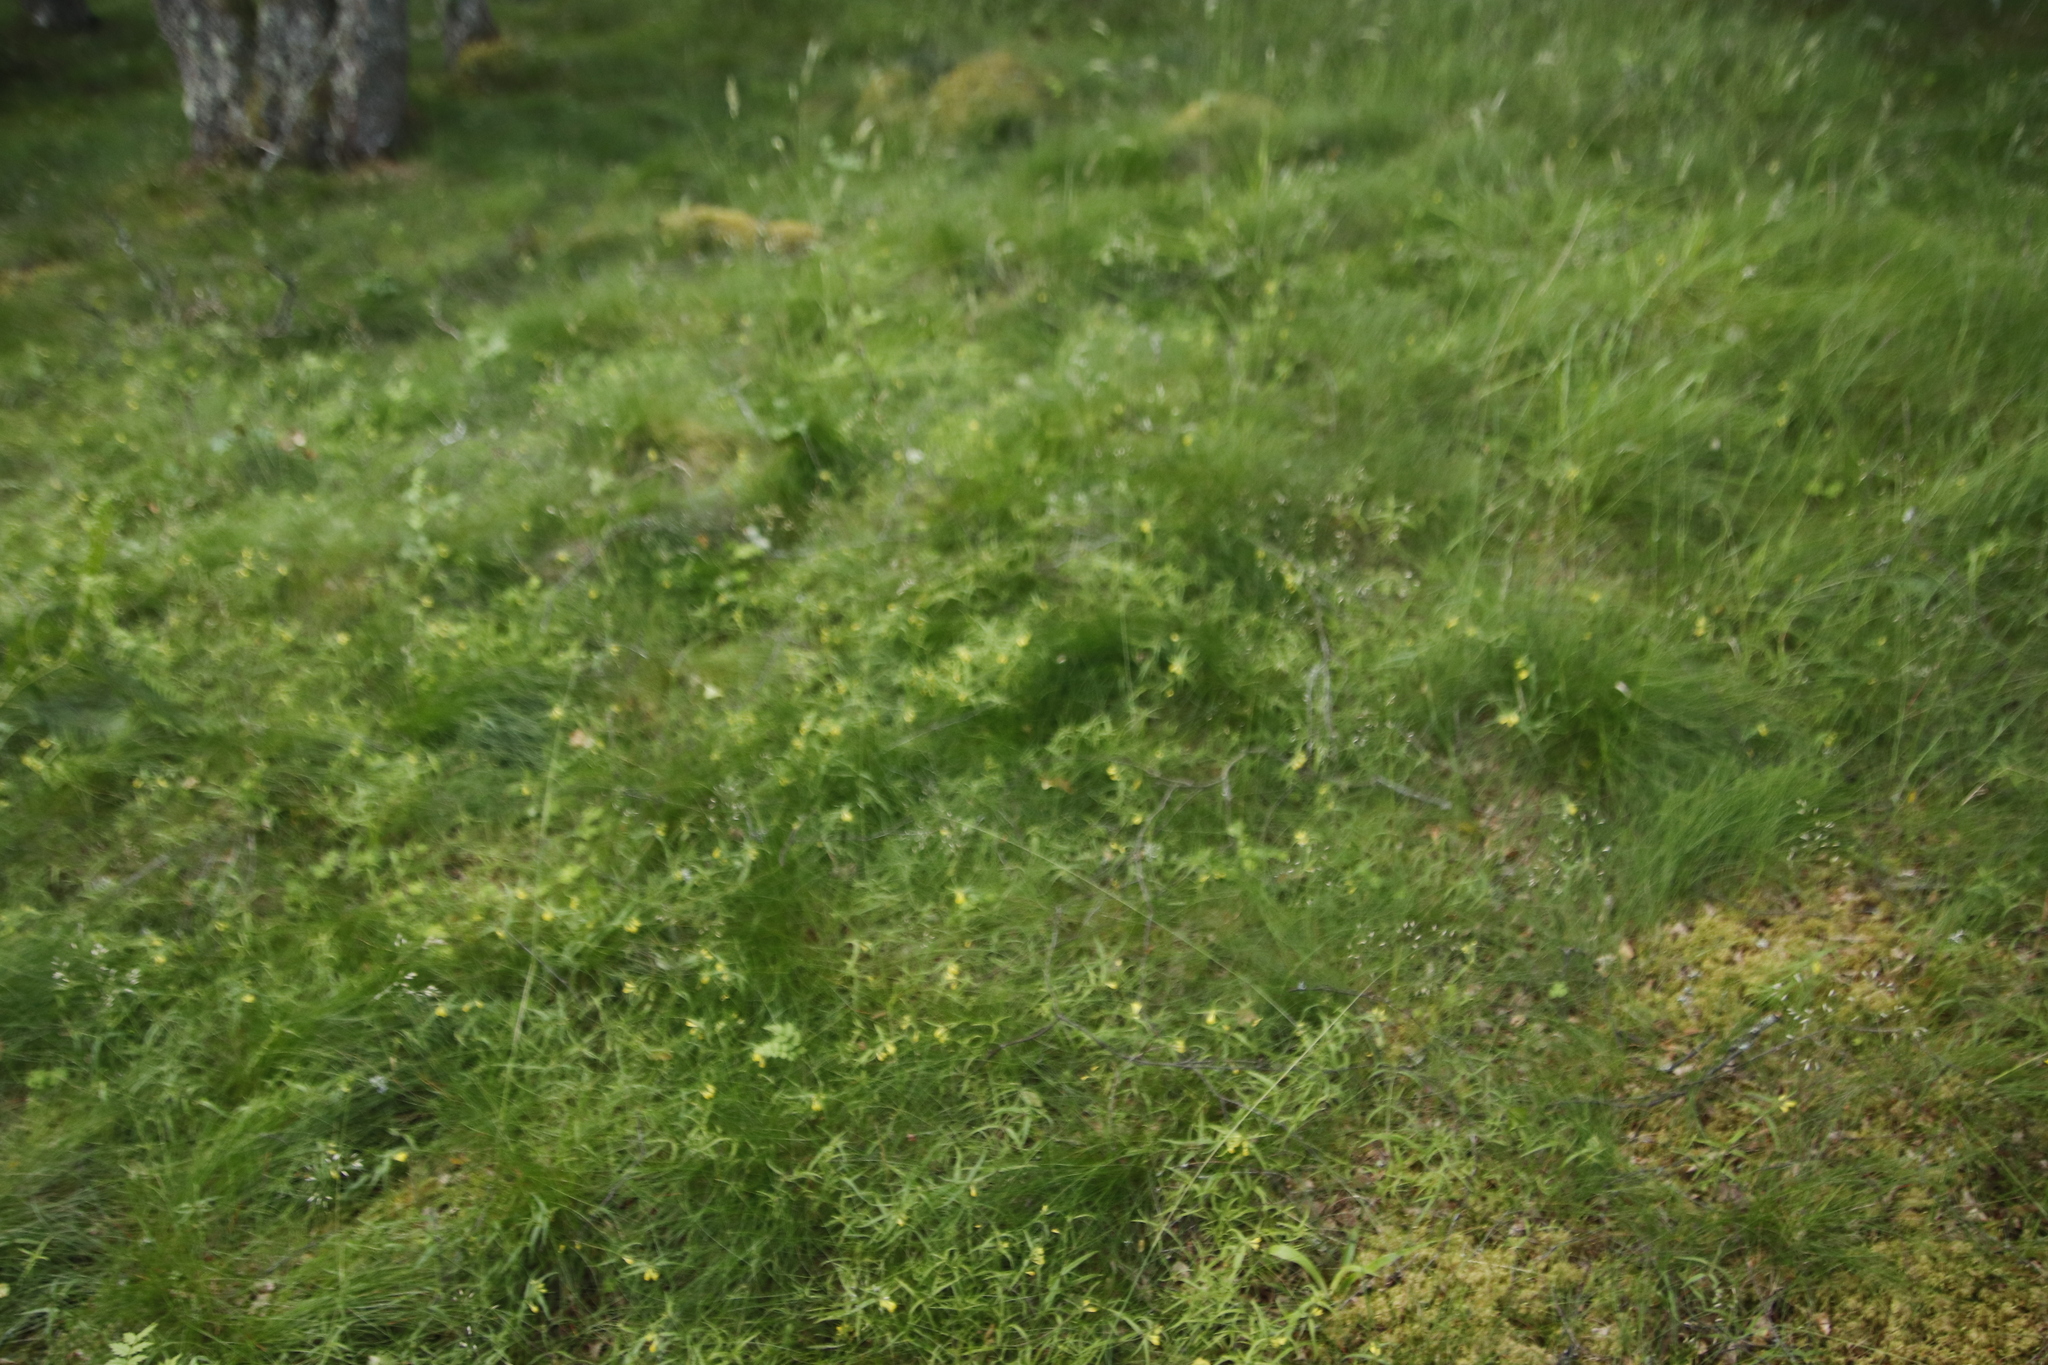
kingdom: Plantae
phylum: Tracheophyta
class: Magnoliopsida
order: Lamiales
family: Orobanchaceae
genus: Melampyrum
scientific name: Melampyrum pratense
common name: Common cow-wheat
